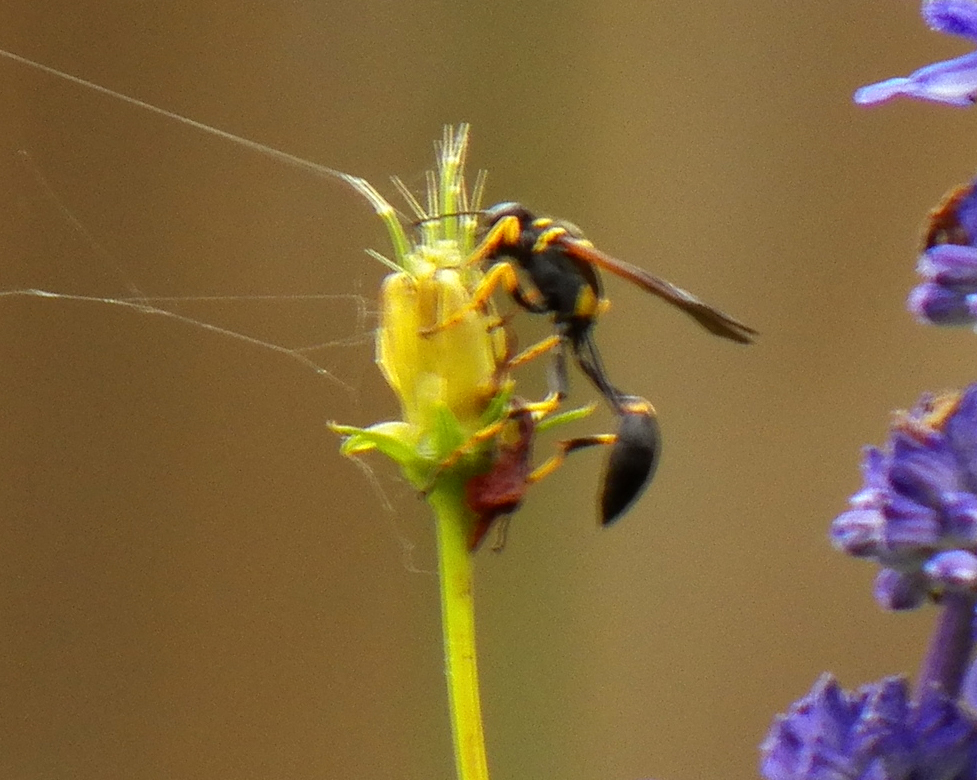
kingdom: Animalia
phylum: Arthropoda
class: Insecta
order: Hymenoptera
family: Sphecidae
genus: Sceliphron
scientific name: Sceliphron caementarium
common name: Mud dauber
